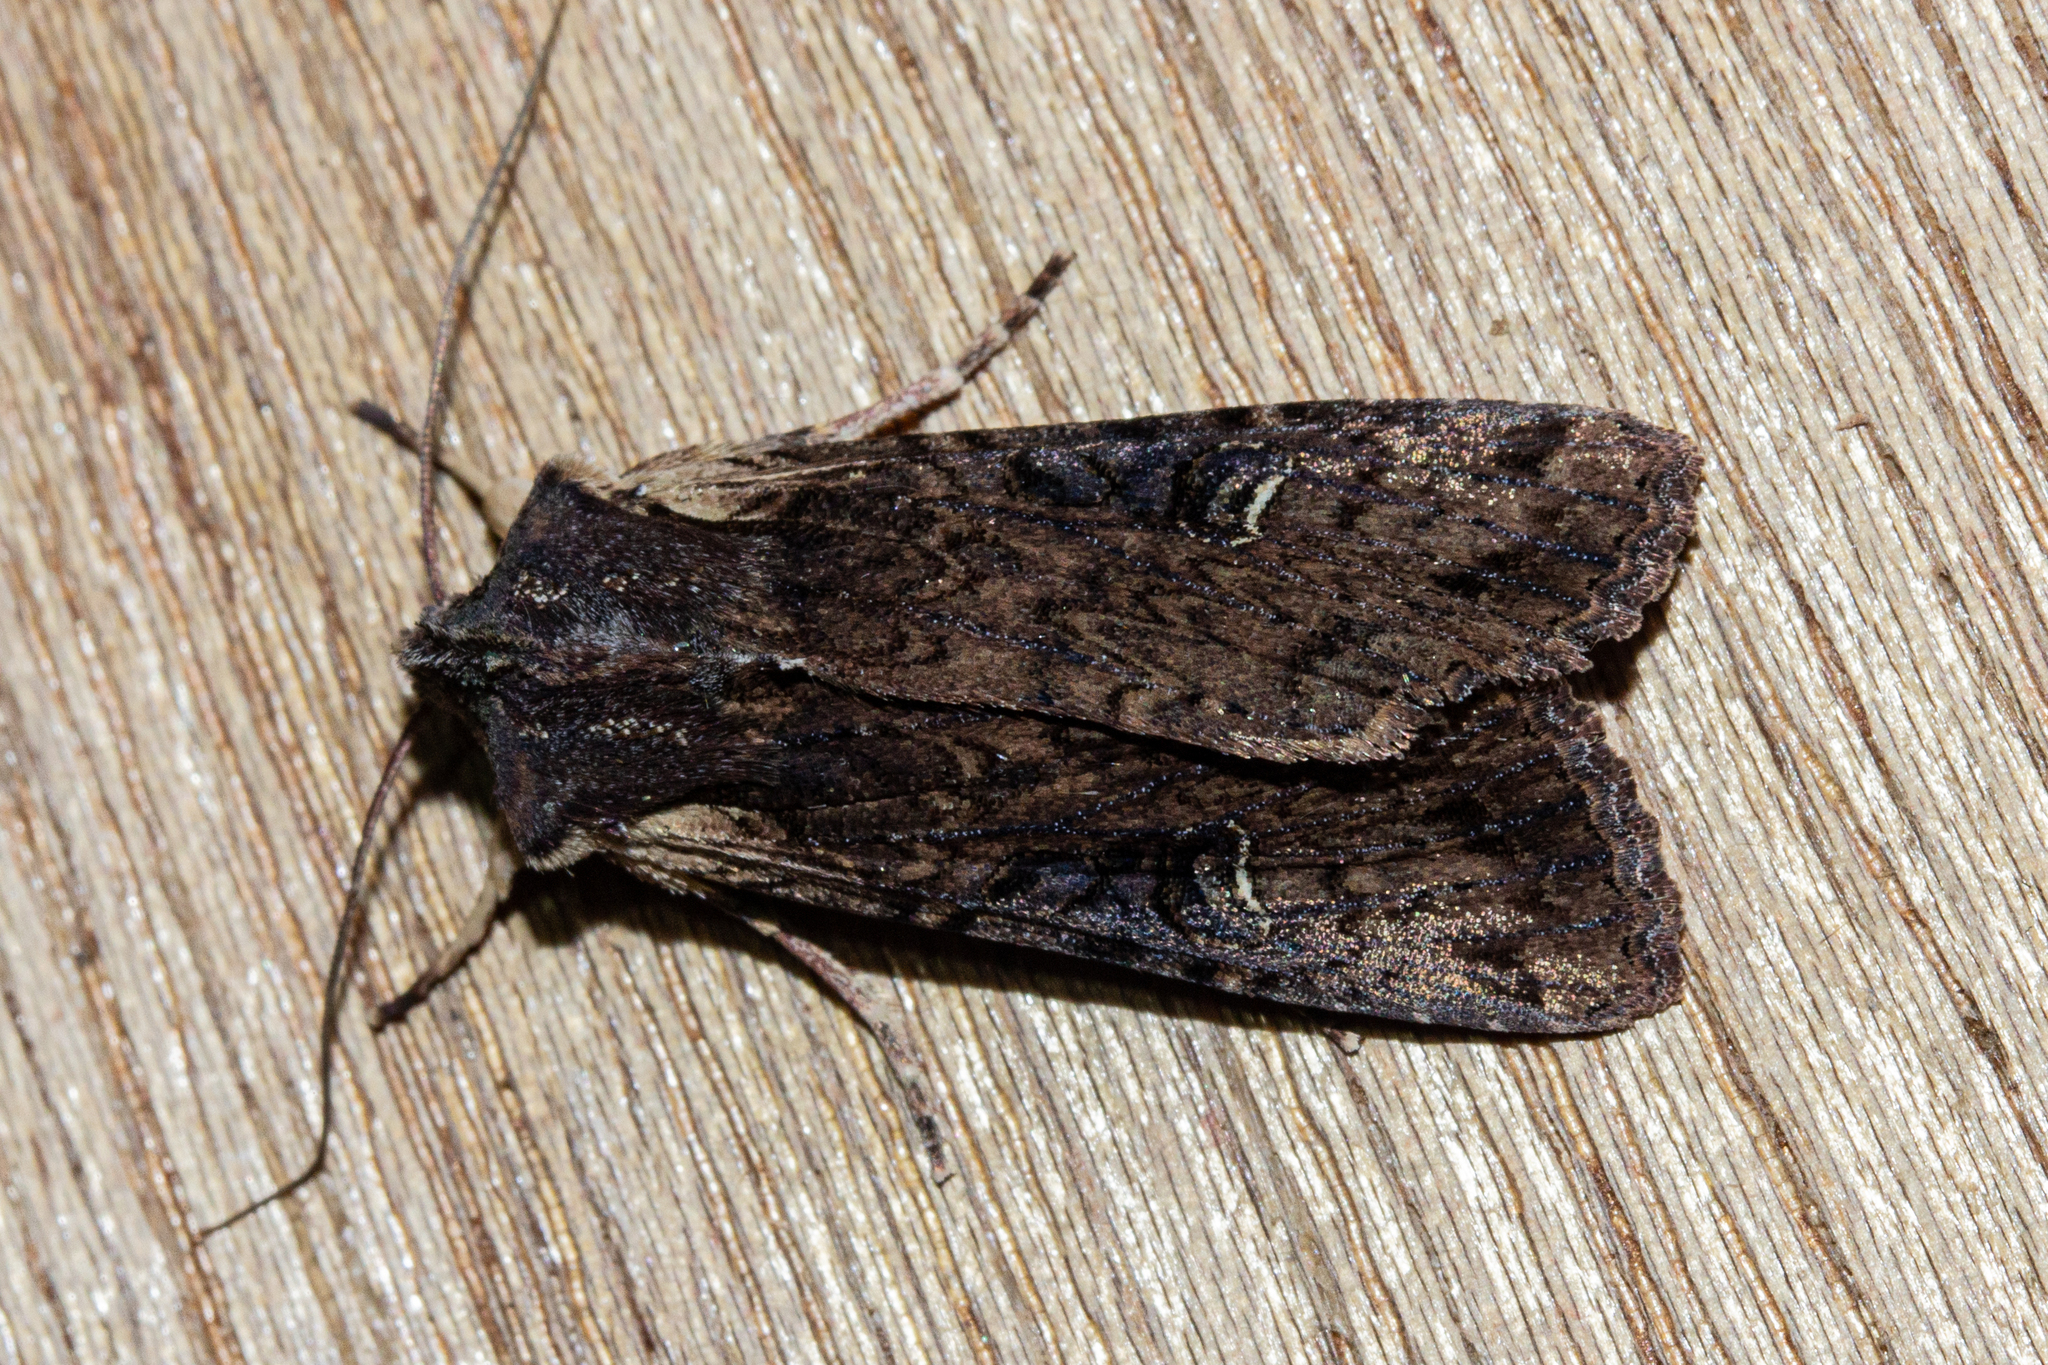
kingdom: Animalia
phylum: Arthropoda
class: Insecta
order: Lepidoptera
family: Noctuidae
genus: Ichneutica
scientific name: Ichneutica omoplaca
